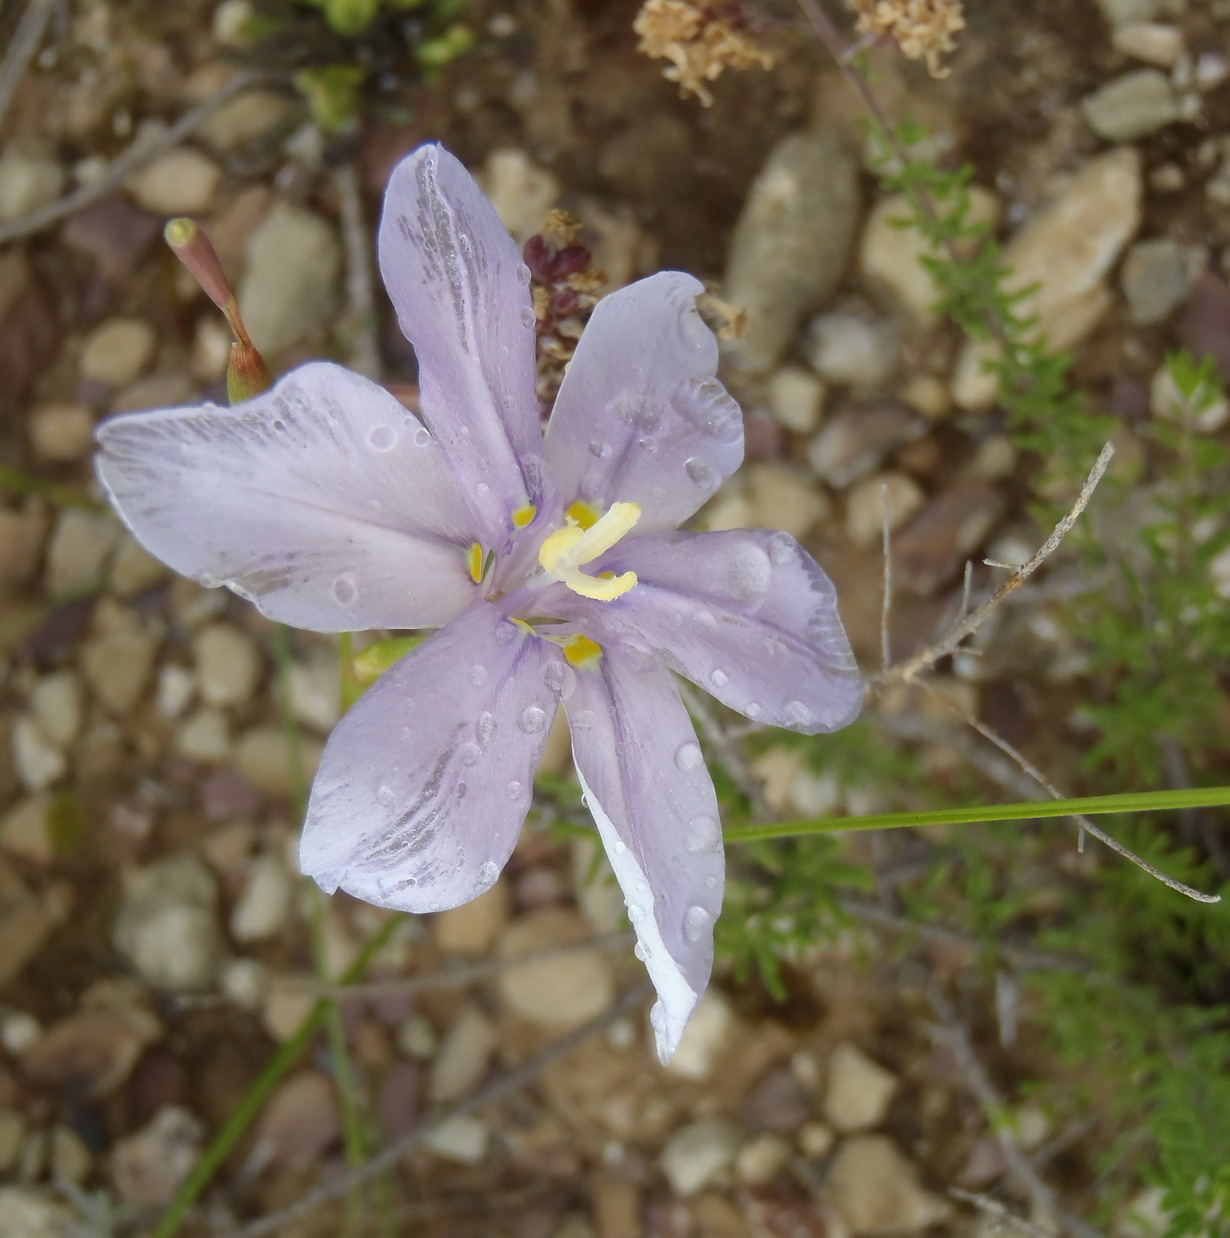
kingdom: Plantae
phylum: Tracheophyta
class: Liliopsida
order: Asparagales
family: Iridaceae
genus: Moraea
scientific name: Moraea polyanthos
